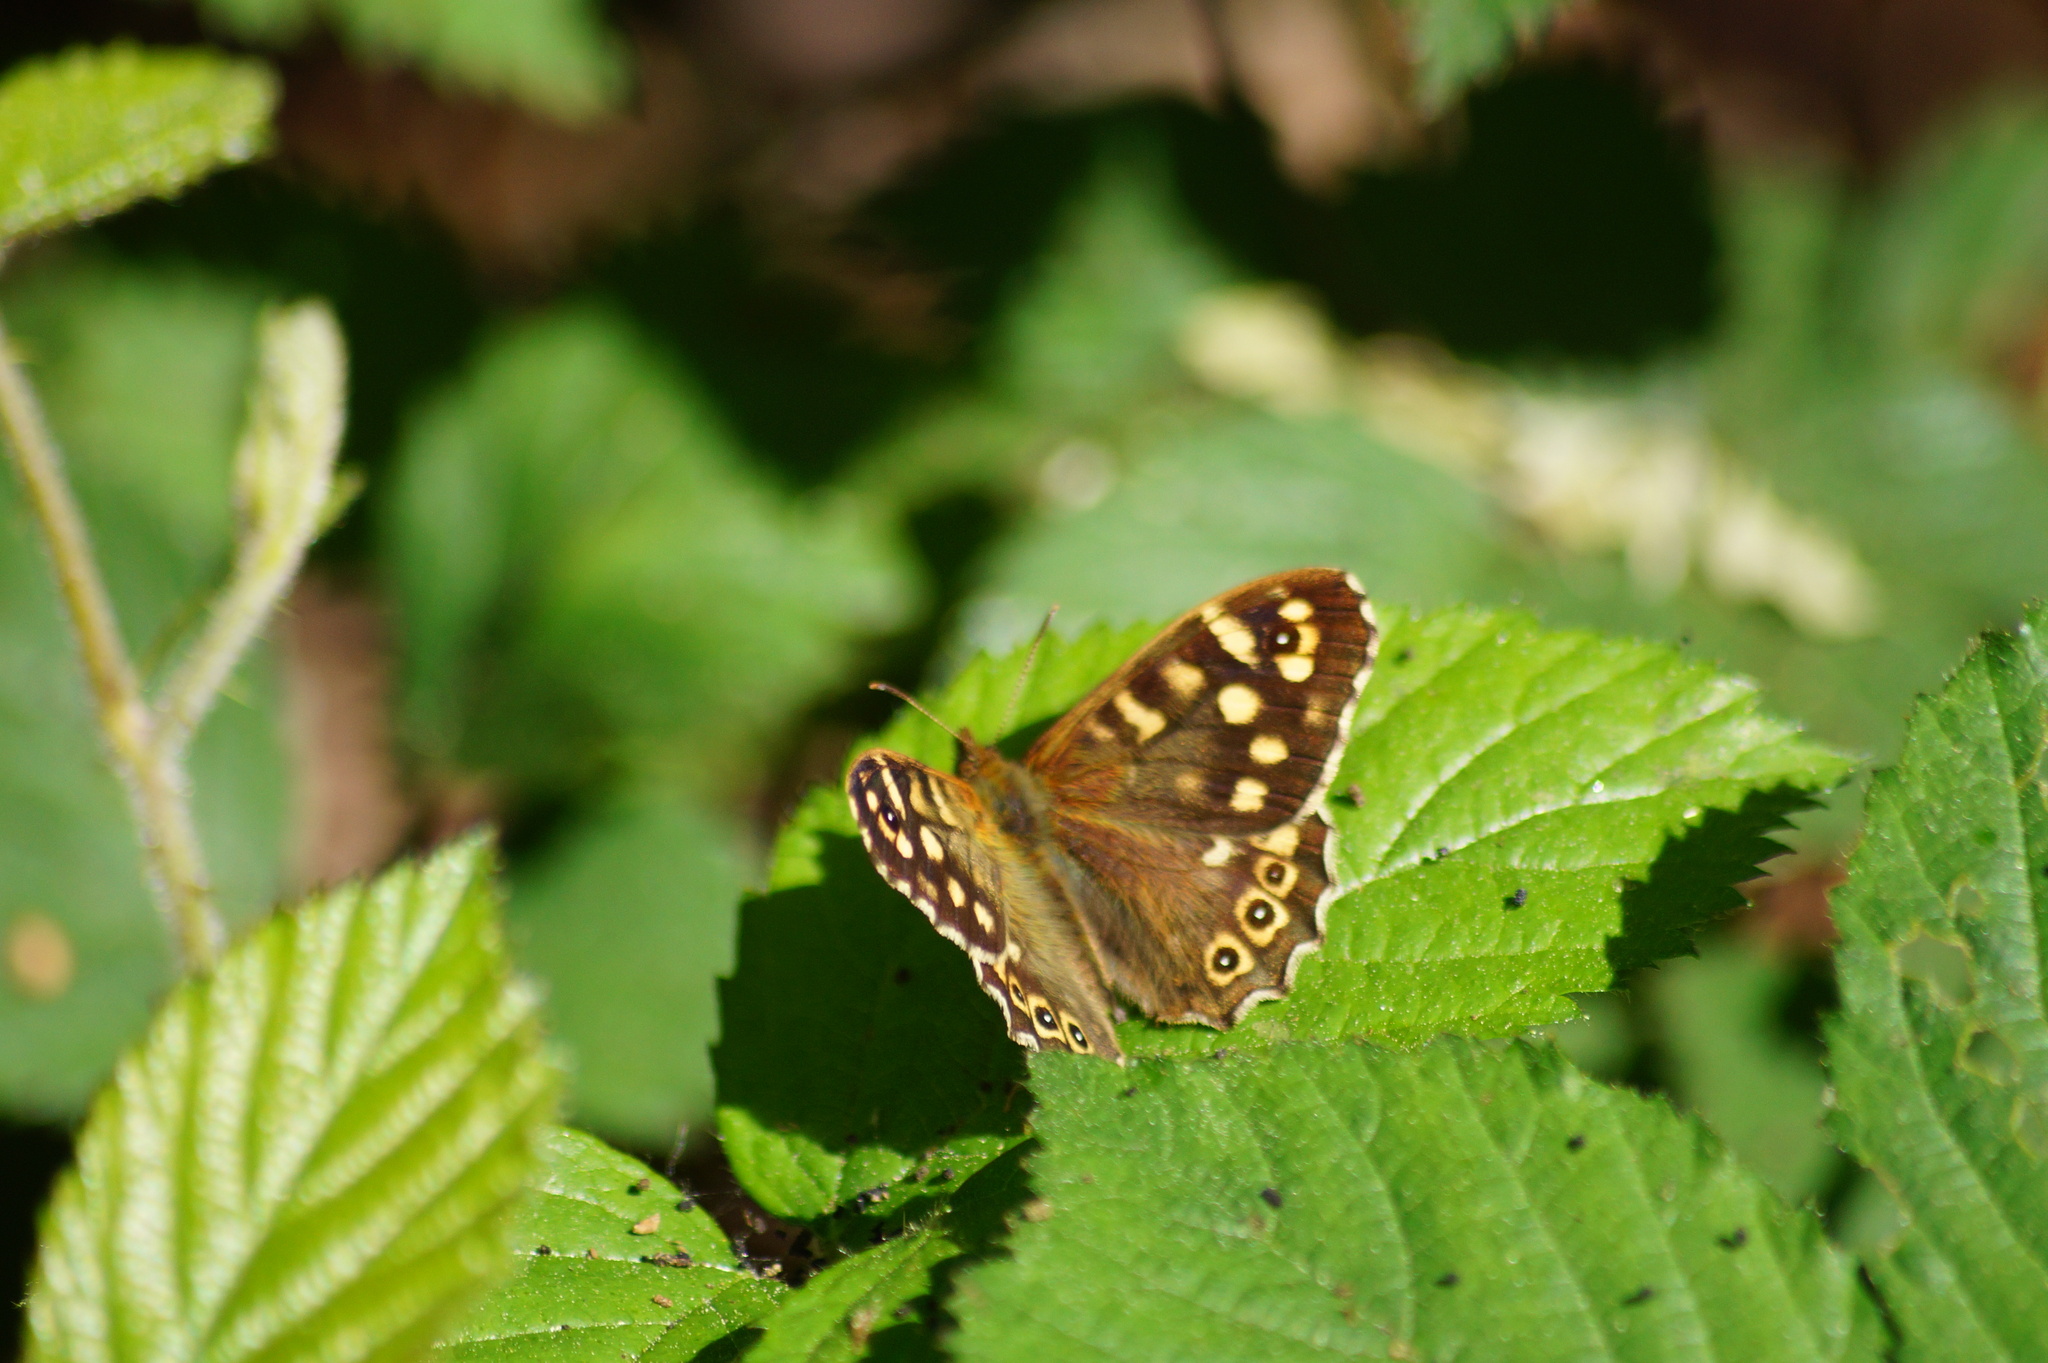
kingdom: Animalia
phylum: Arthropoda
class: Insecta
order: Lepidoptera
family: Nymphalidae
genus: Pararge
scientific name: Pararge aegeria
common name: Speckled wood
